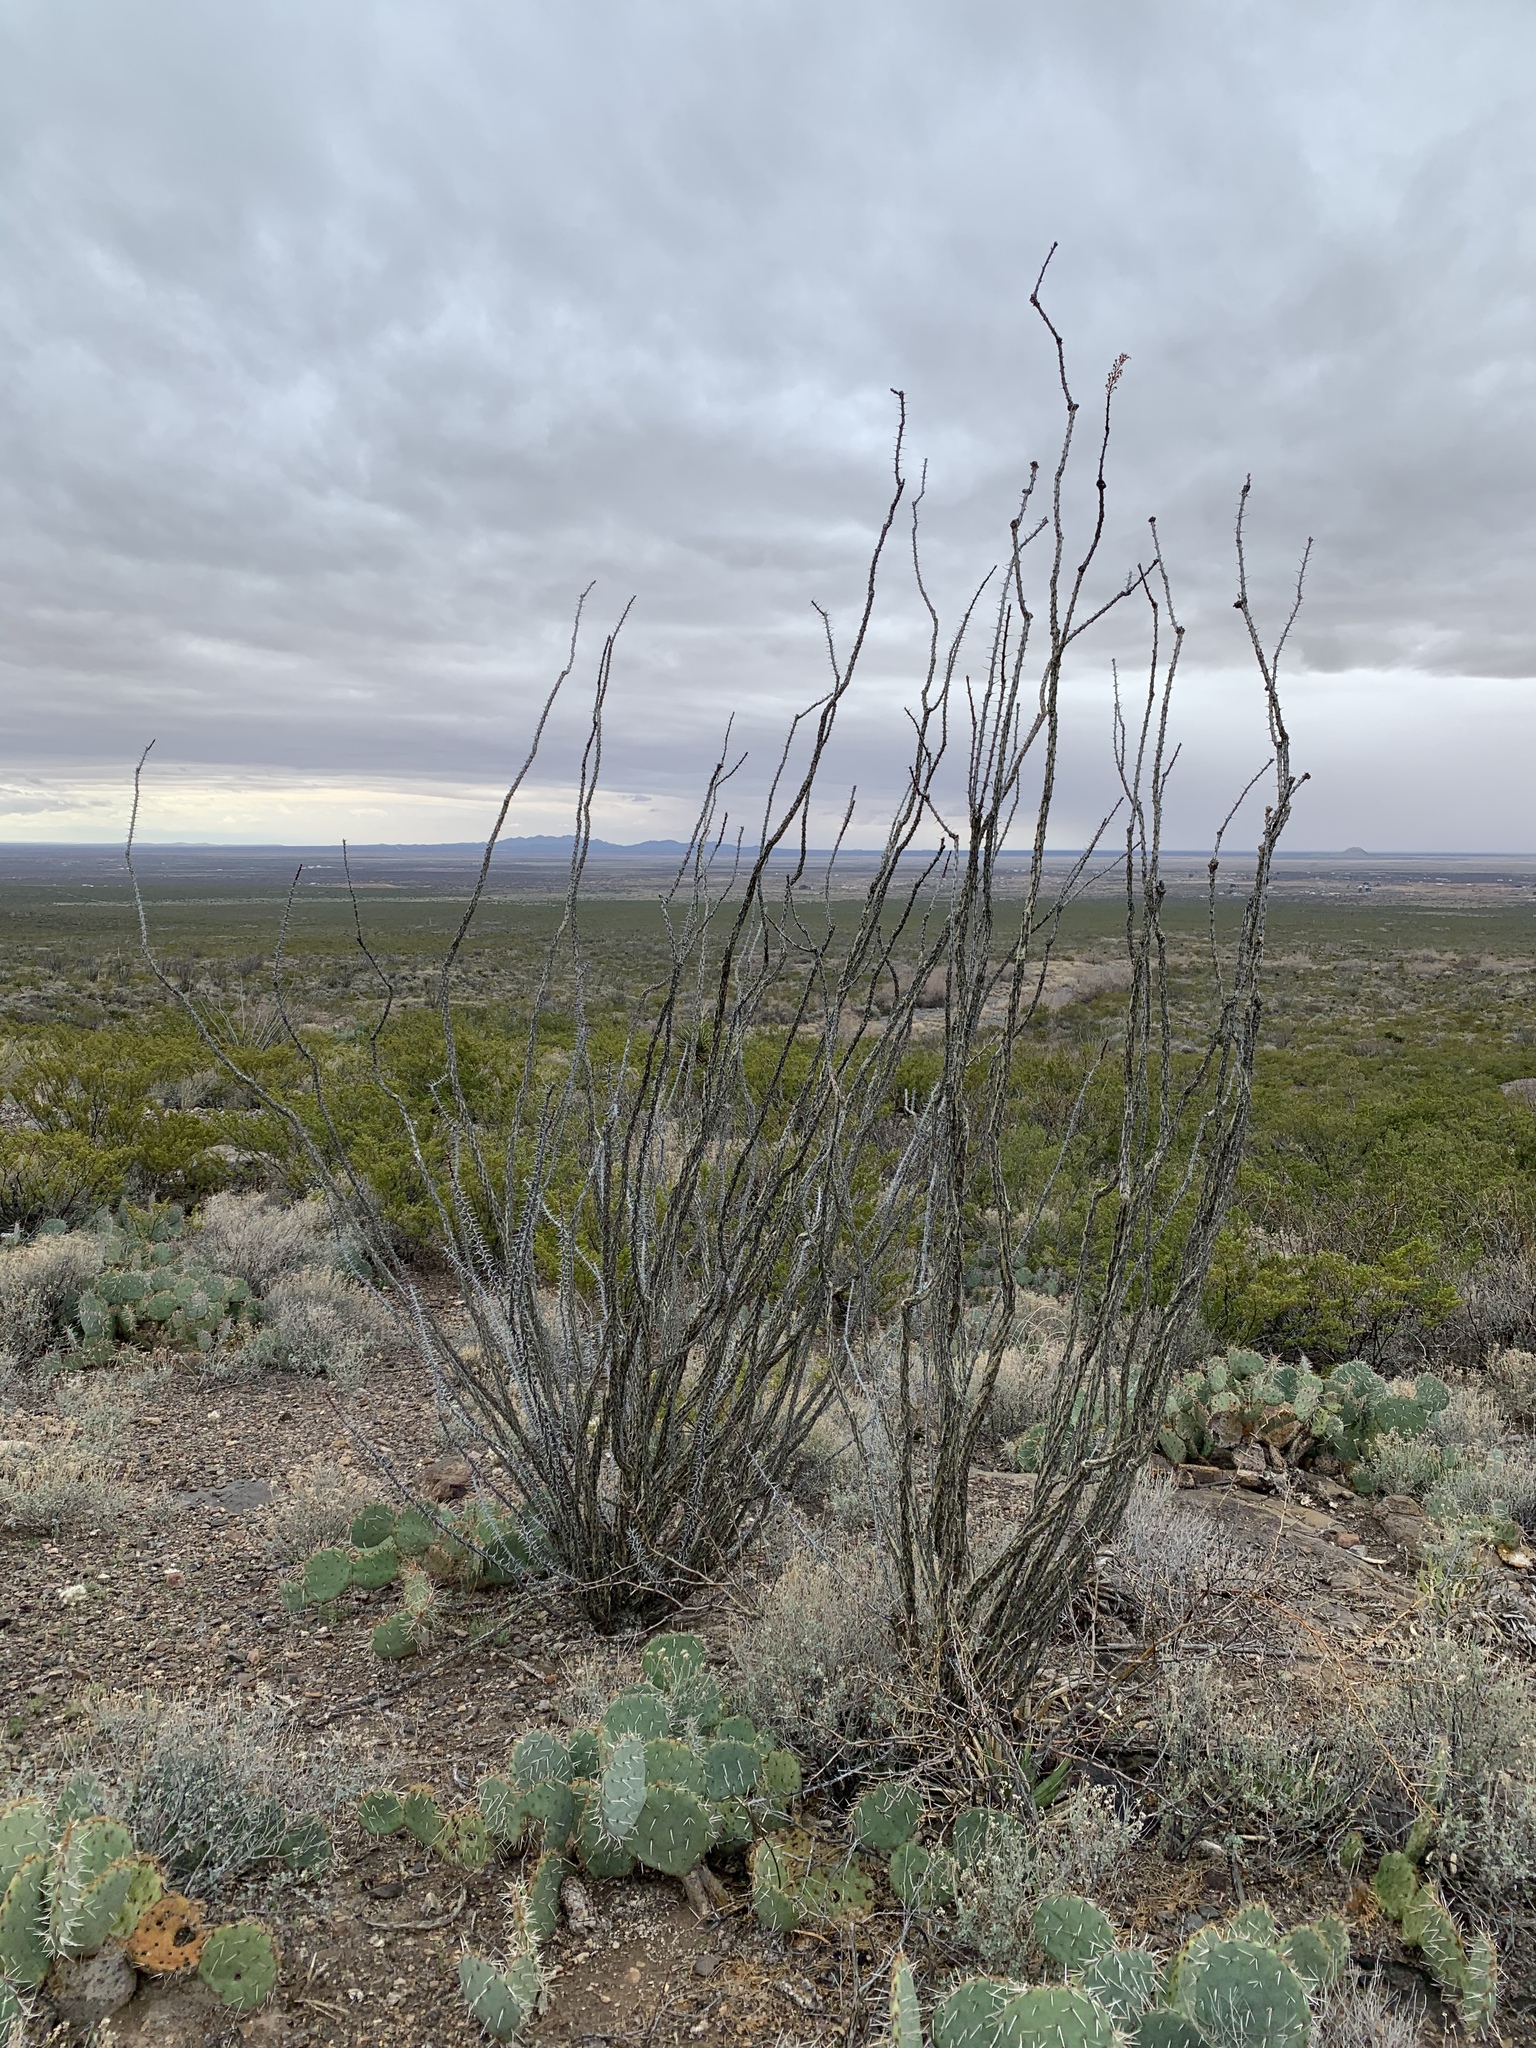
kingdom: Plantae
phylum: Tracheophyta
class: Magnoliopsida
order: Ericales
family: Fouquieriaceae
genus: Fouquieria
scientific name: Fouquieria splendens
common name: Vine-cactus
